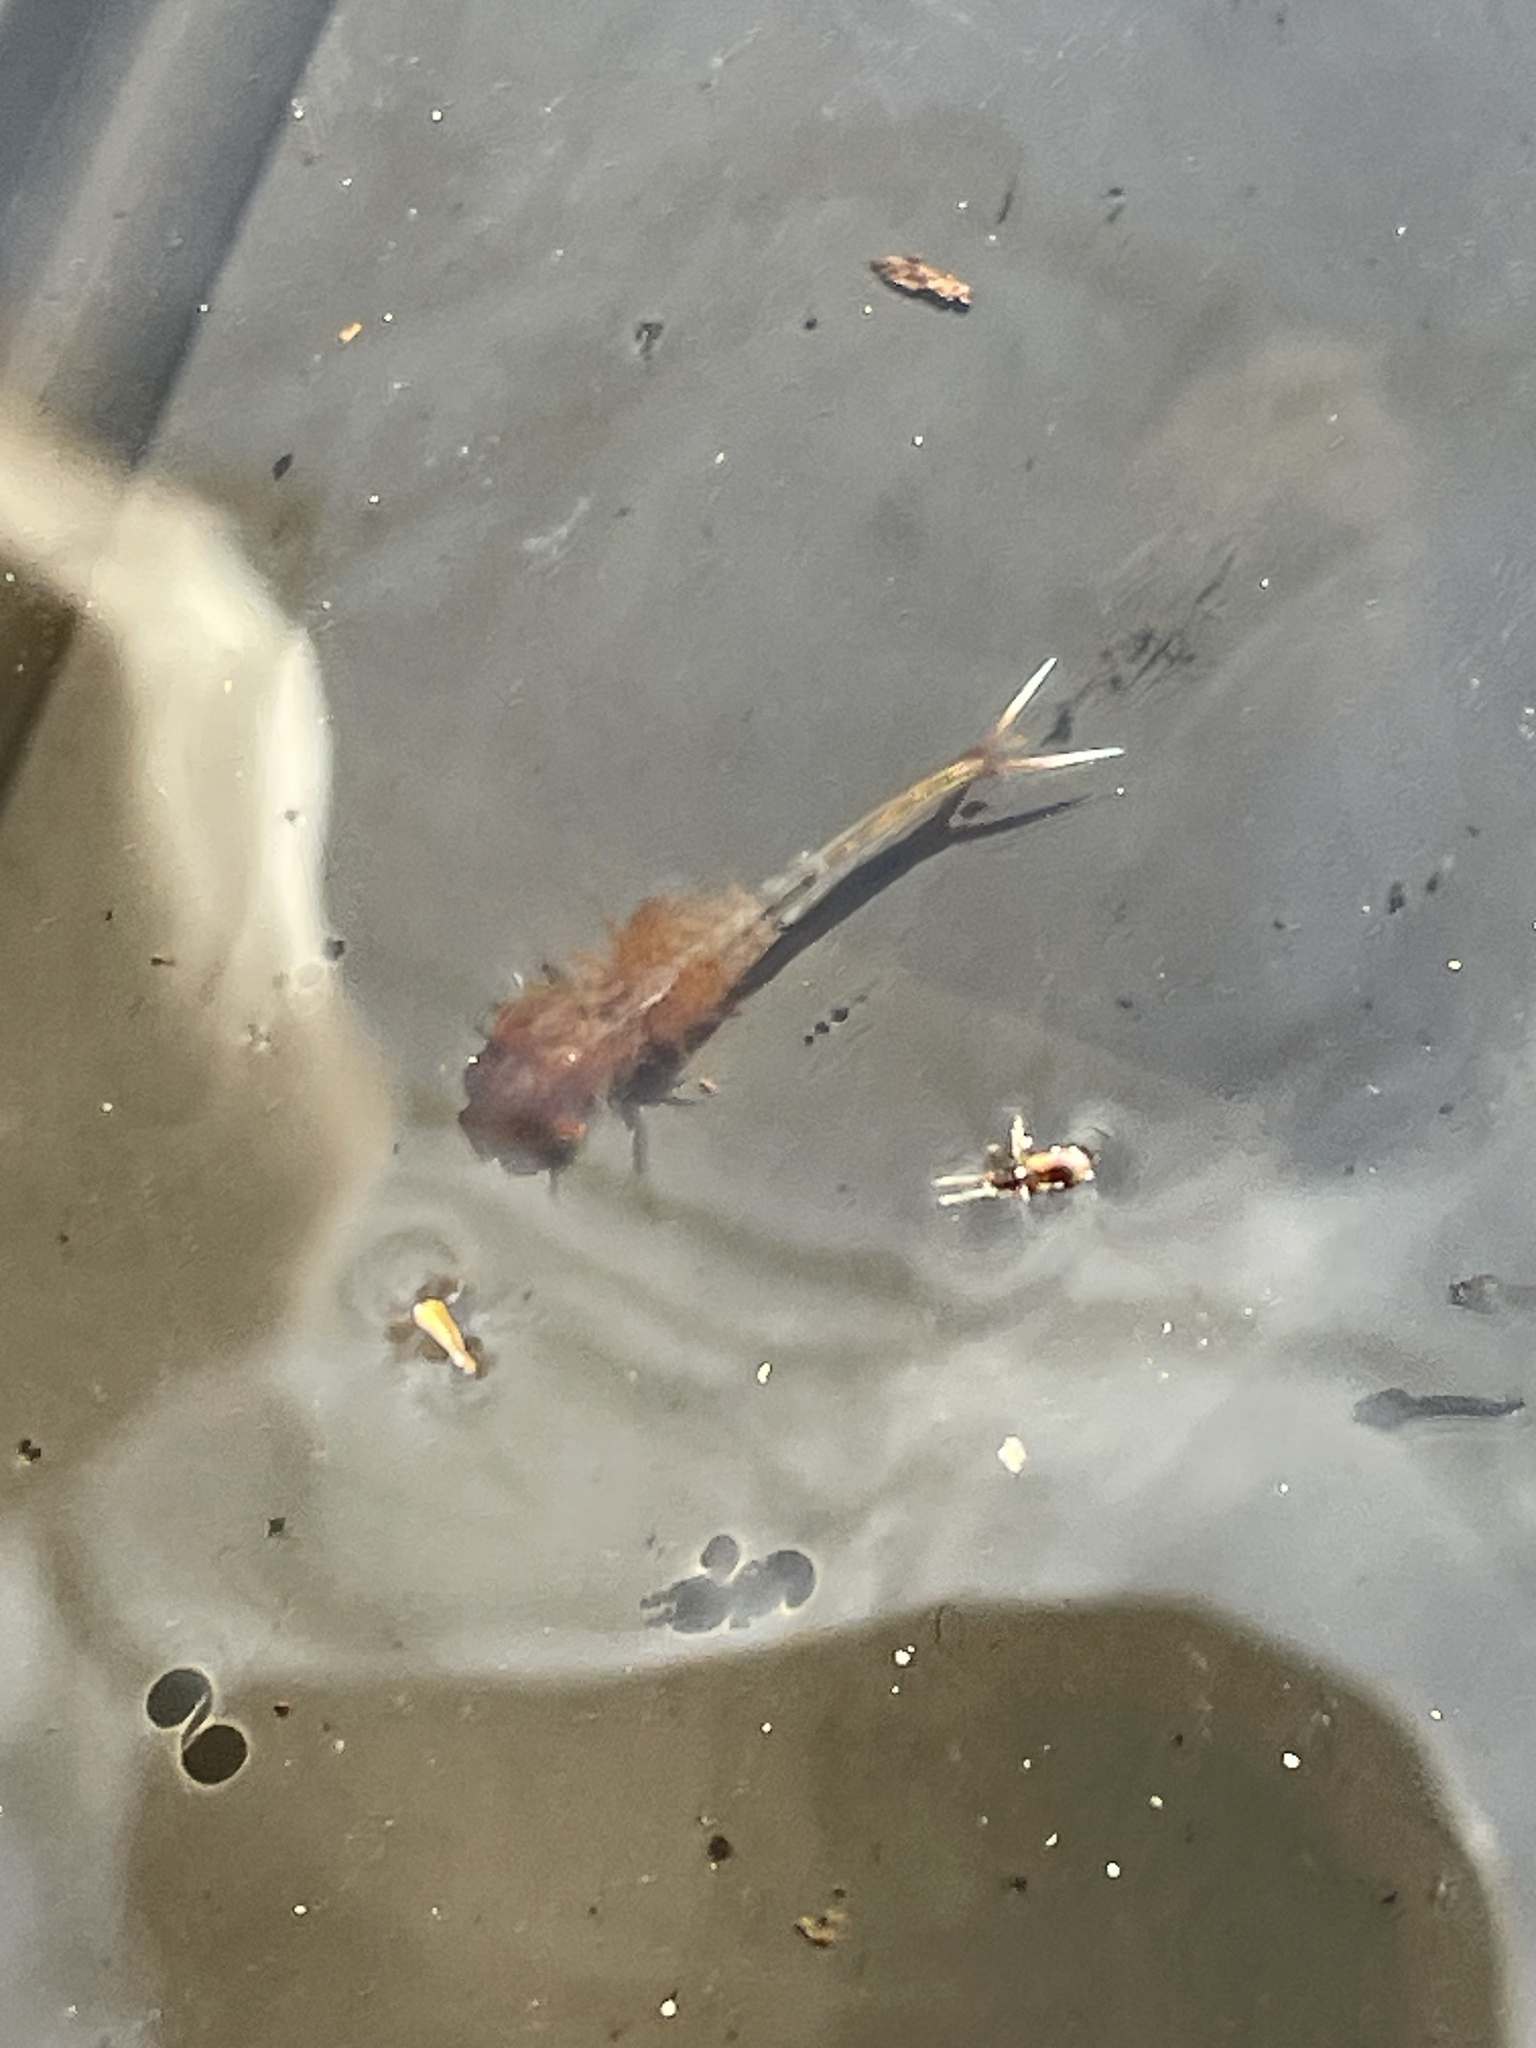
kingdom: Animalia
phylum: Arthropoda
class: Branchiopoda
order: Anostraca
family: Chirocephalidae
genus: Eubranchipus
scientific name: Eubranchipus vernalis
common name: Eastern fairy shrimp
